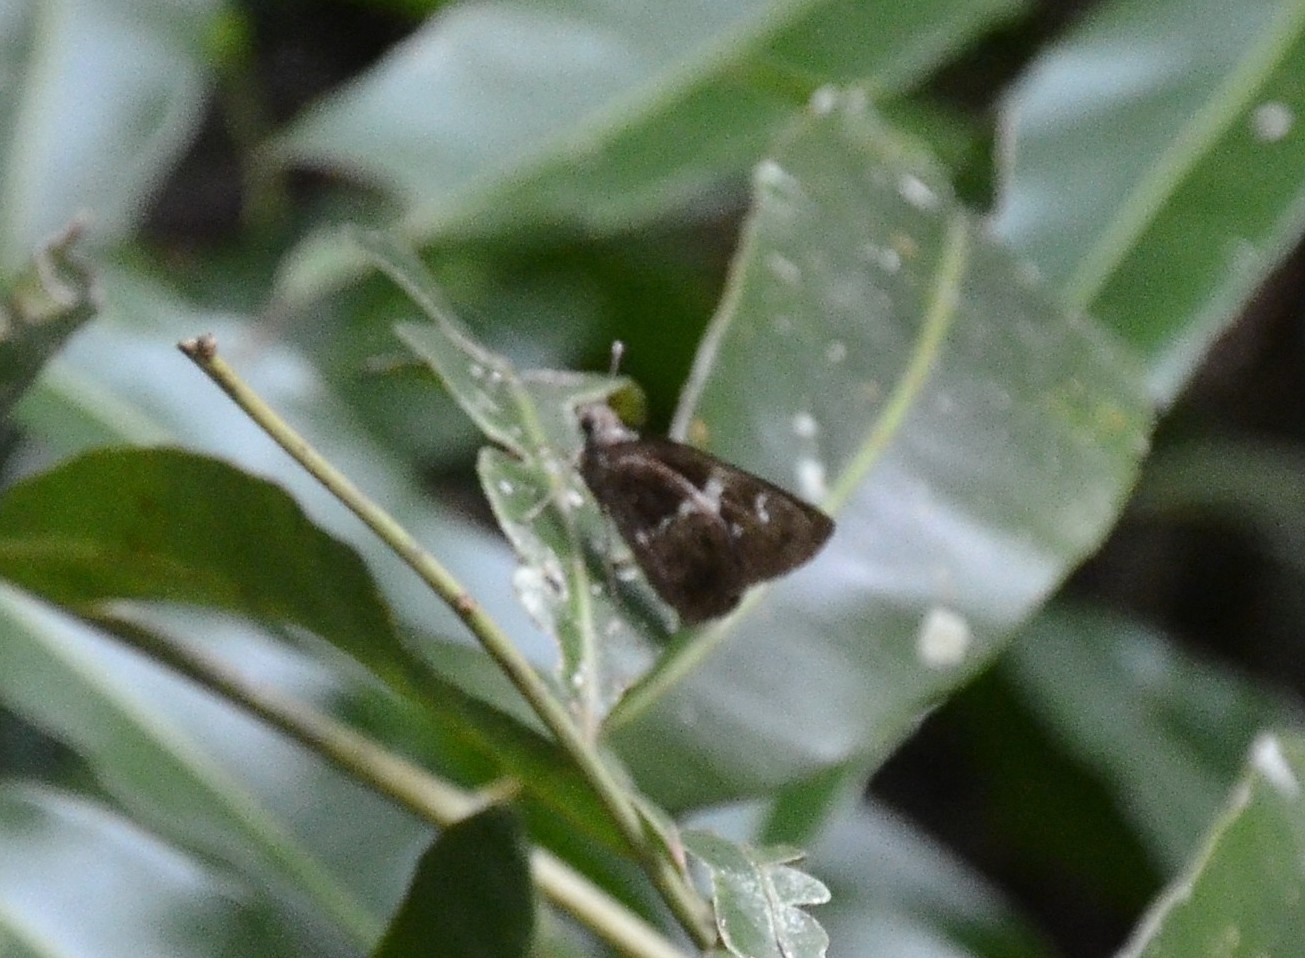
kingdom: Animalia
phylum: Arthropoda
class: Insecta
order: Lepidoptera
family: Hesperiidae
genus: Hyarotis
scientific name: Hyarotis adrastus
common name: Tree flitter
